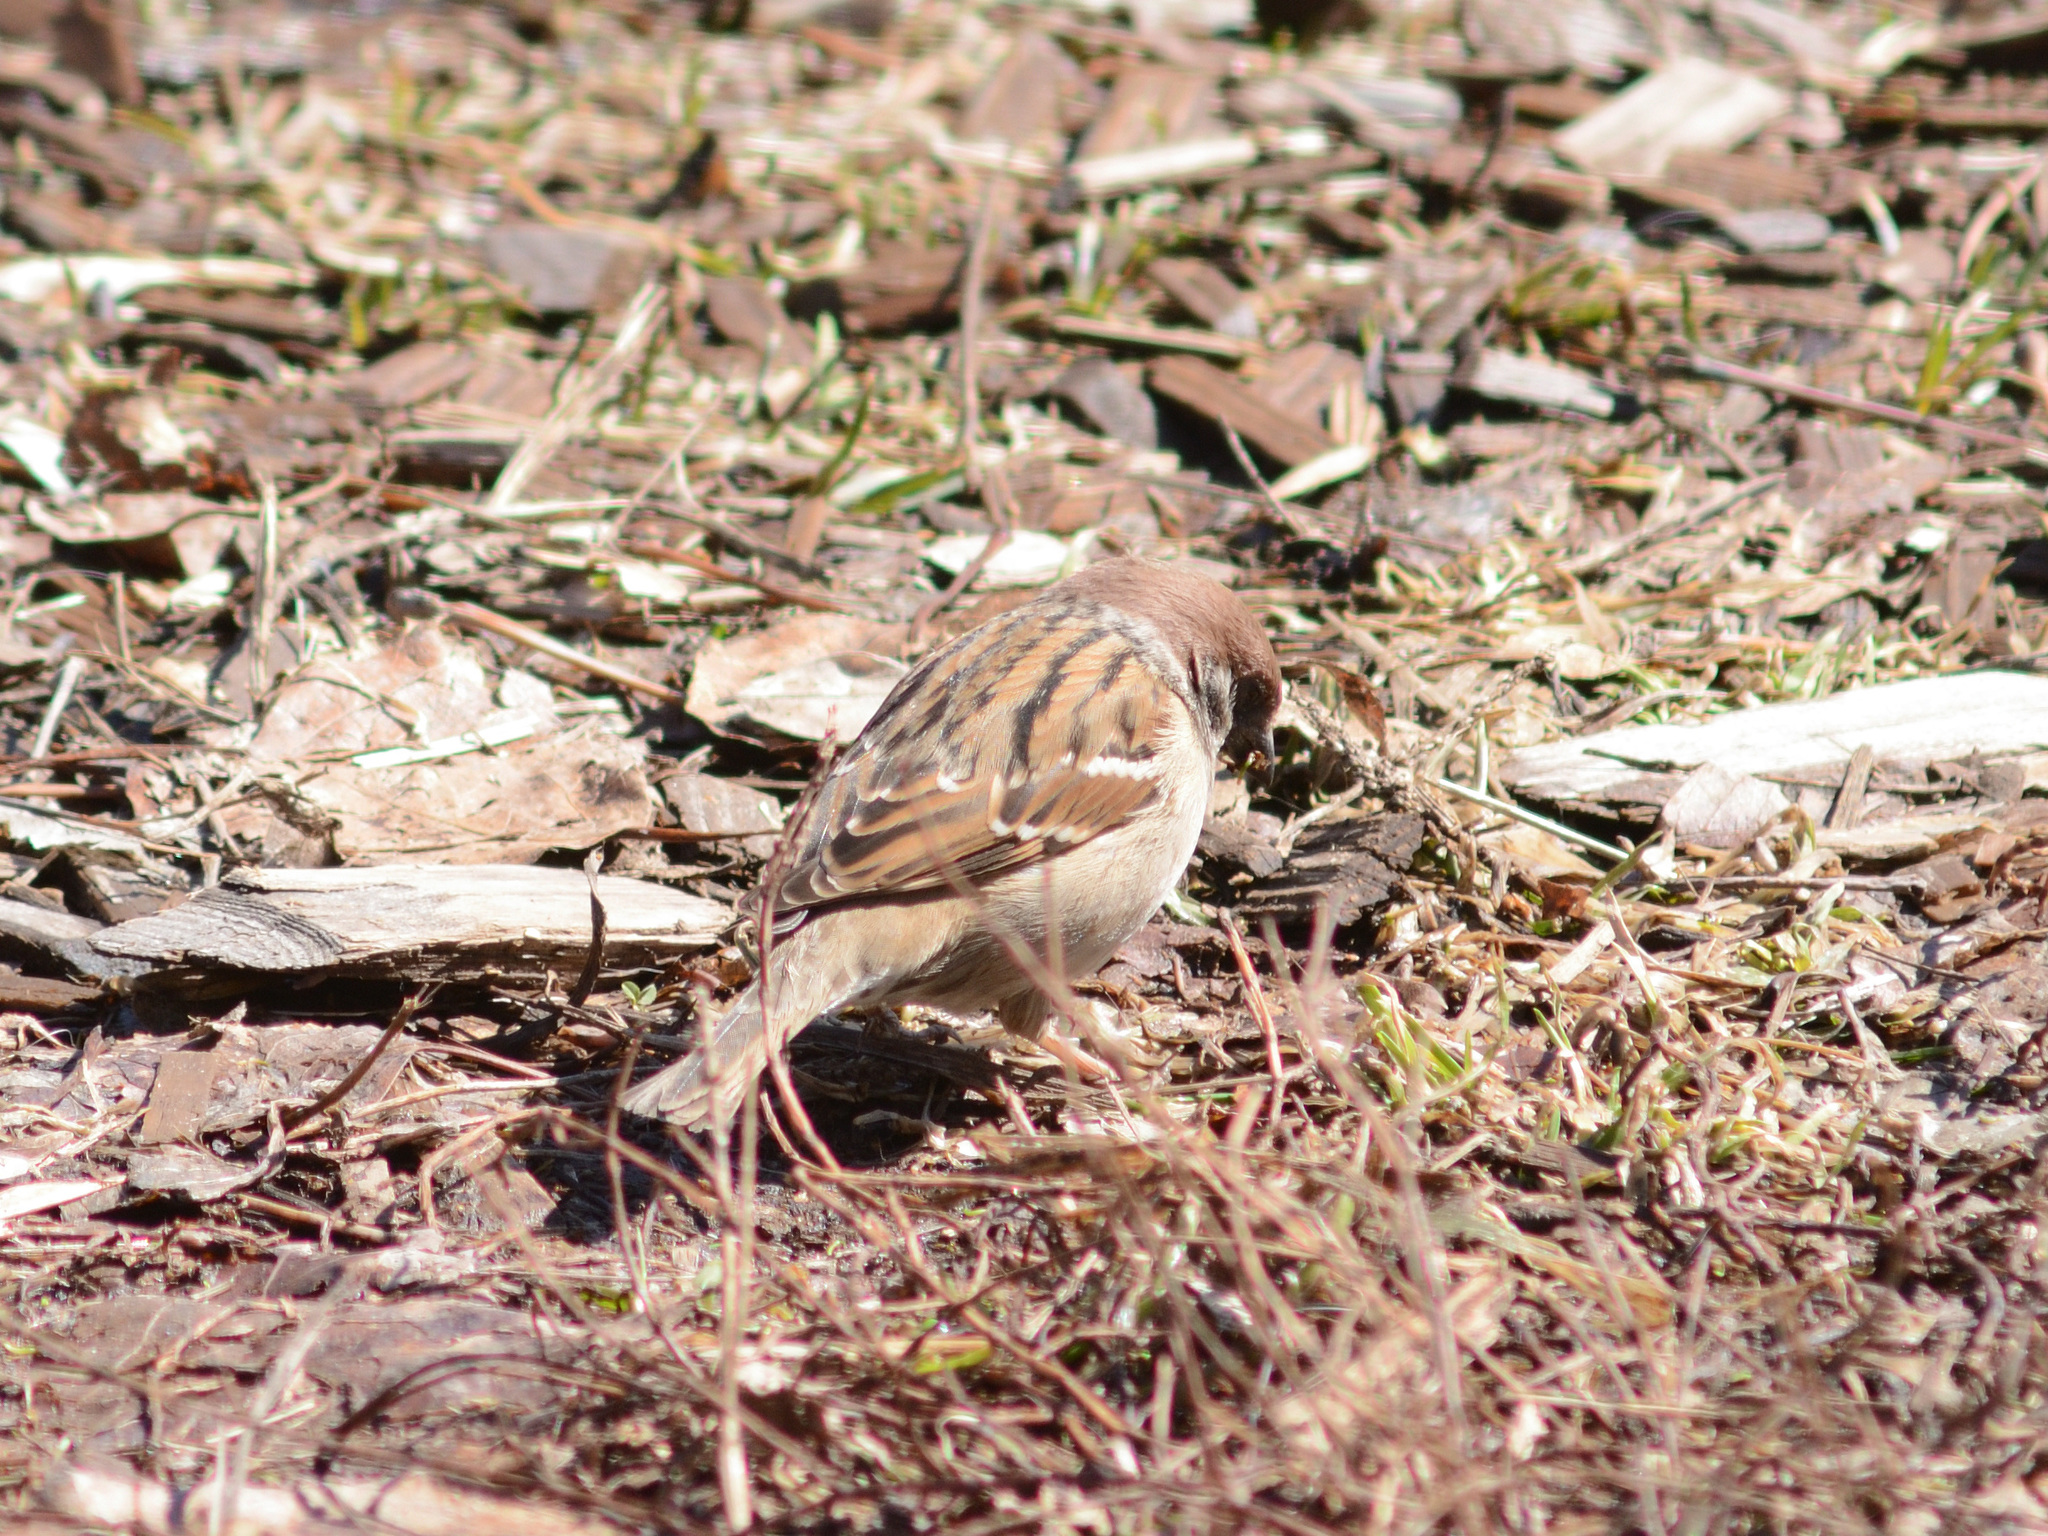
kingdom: Animalia
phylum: Chordata
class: Aves
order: Passeriformes
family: Passeridae
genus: Passer
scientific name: Passer montanus
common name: Eurasian tree sparrow
